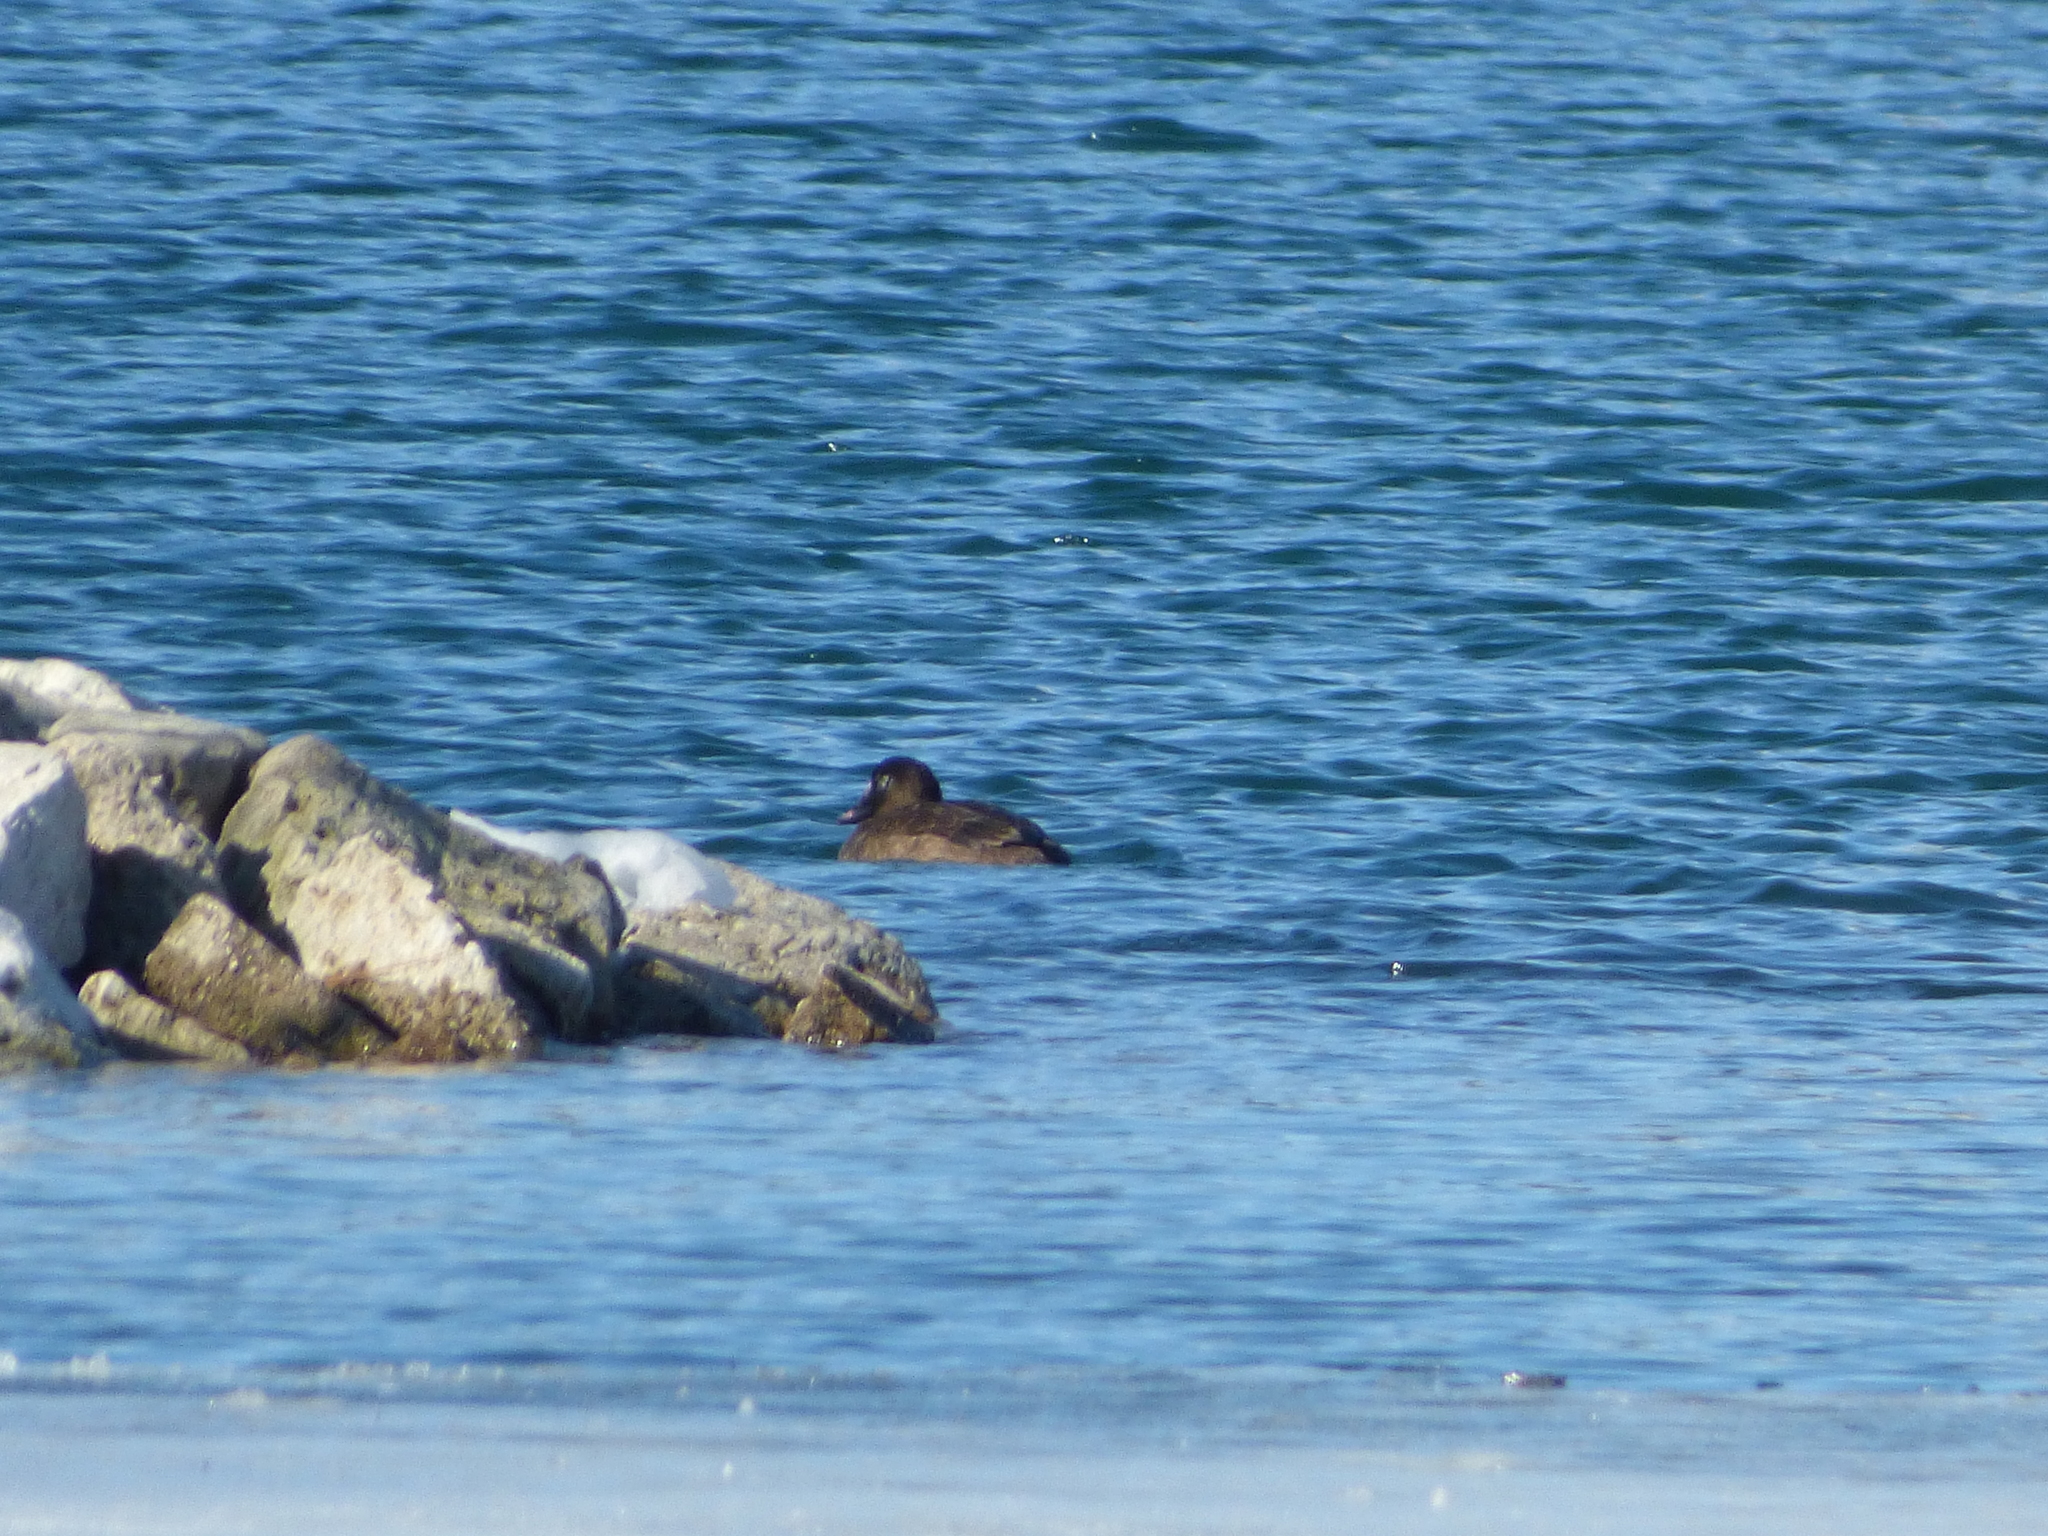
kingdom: Animalia
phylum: Chordata
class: Aves
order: Anseriformes
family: Anatidae
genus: Melanitta
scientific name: Melanitta deglandi
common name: White-winged scoter
